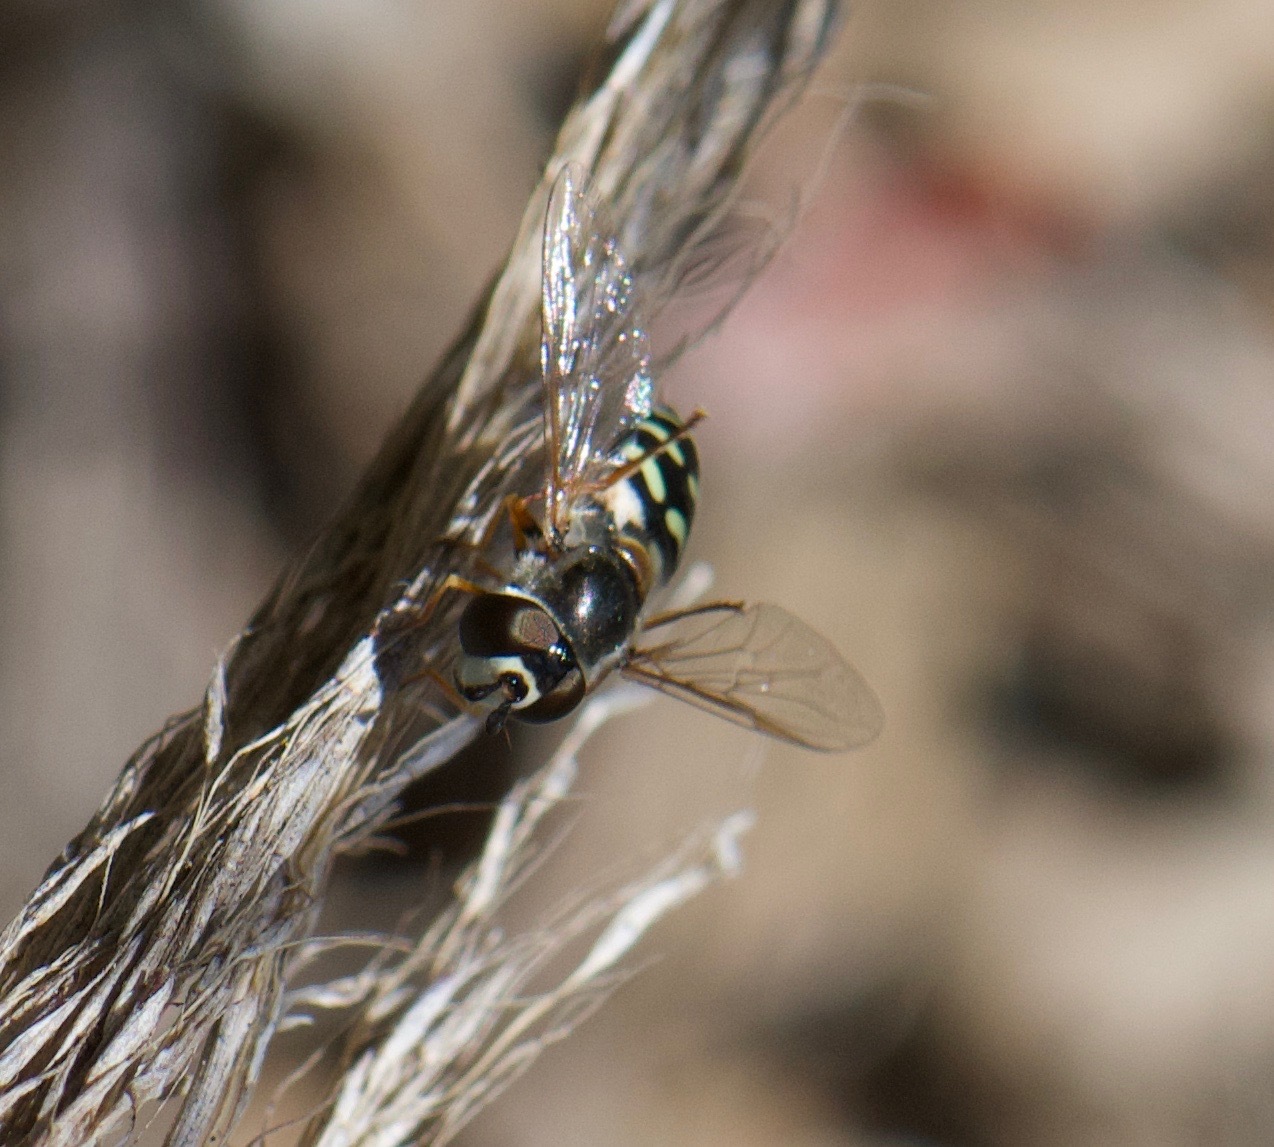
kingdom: Animalia
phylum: Arthropoda
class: Insecta
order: Diptera
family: Syrphidae
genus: Eupeodes
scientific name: Eupeodes volucris
